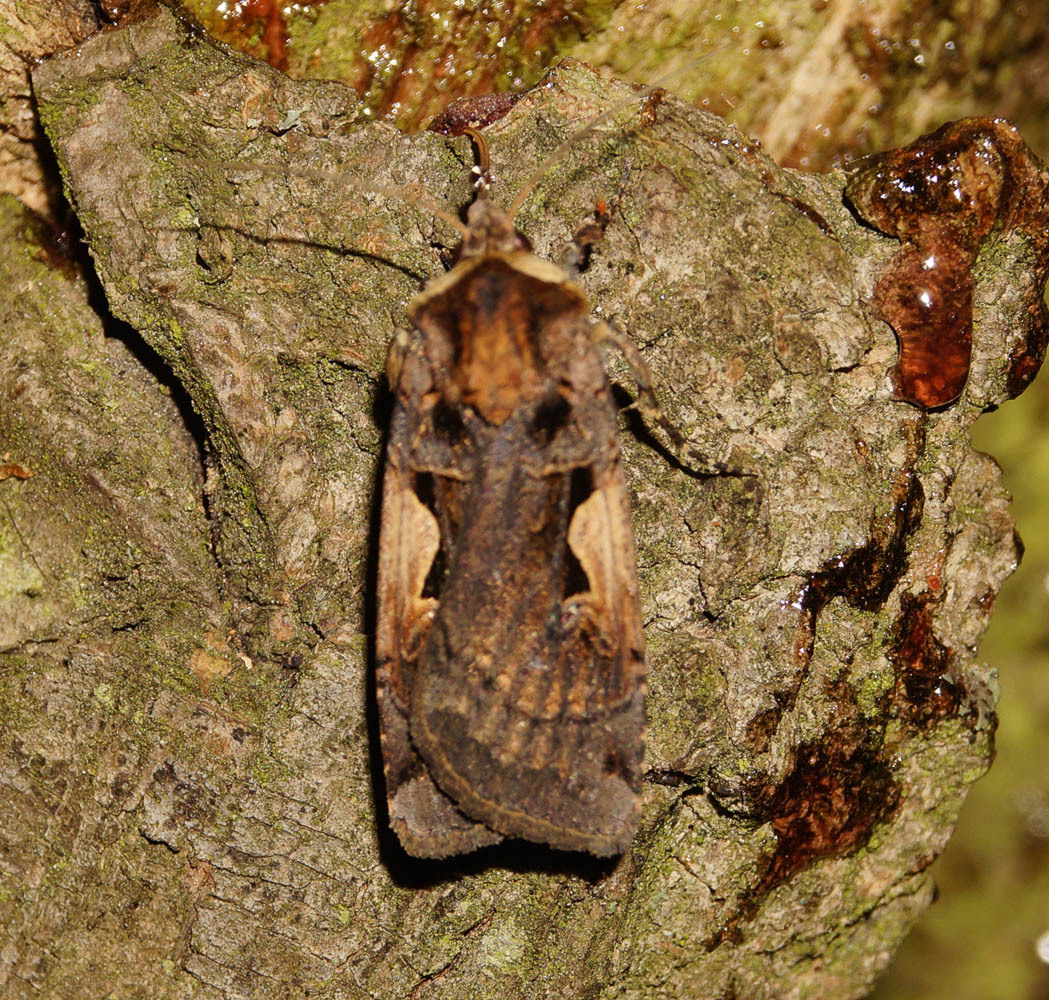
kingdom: Animalia
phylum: Arthropoda
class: Insecta
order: Lepidoptera
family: Noctuidae
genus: Xestia
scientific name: Xestia c-nigrum
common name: Setaceous hebrew character
